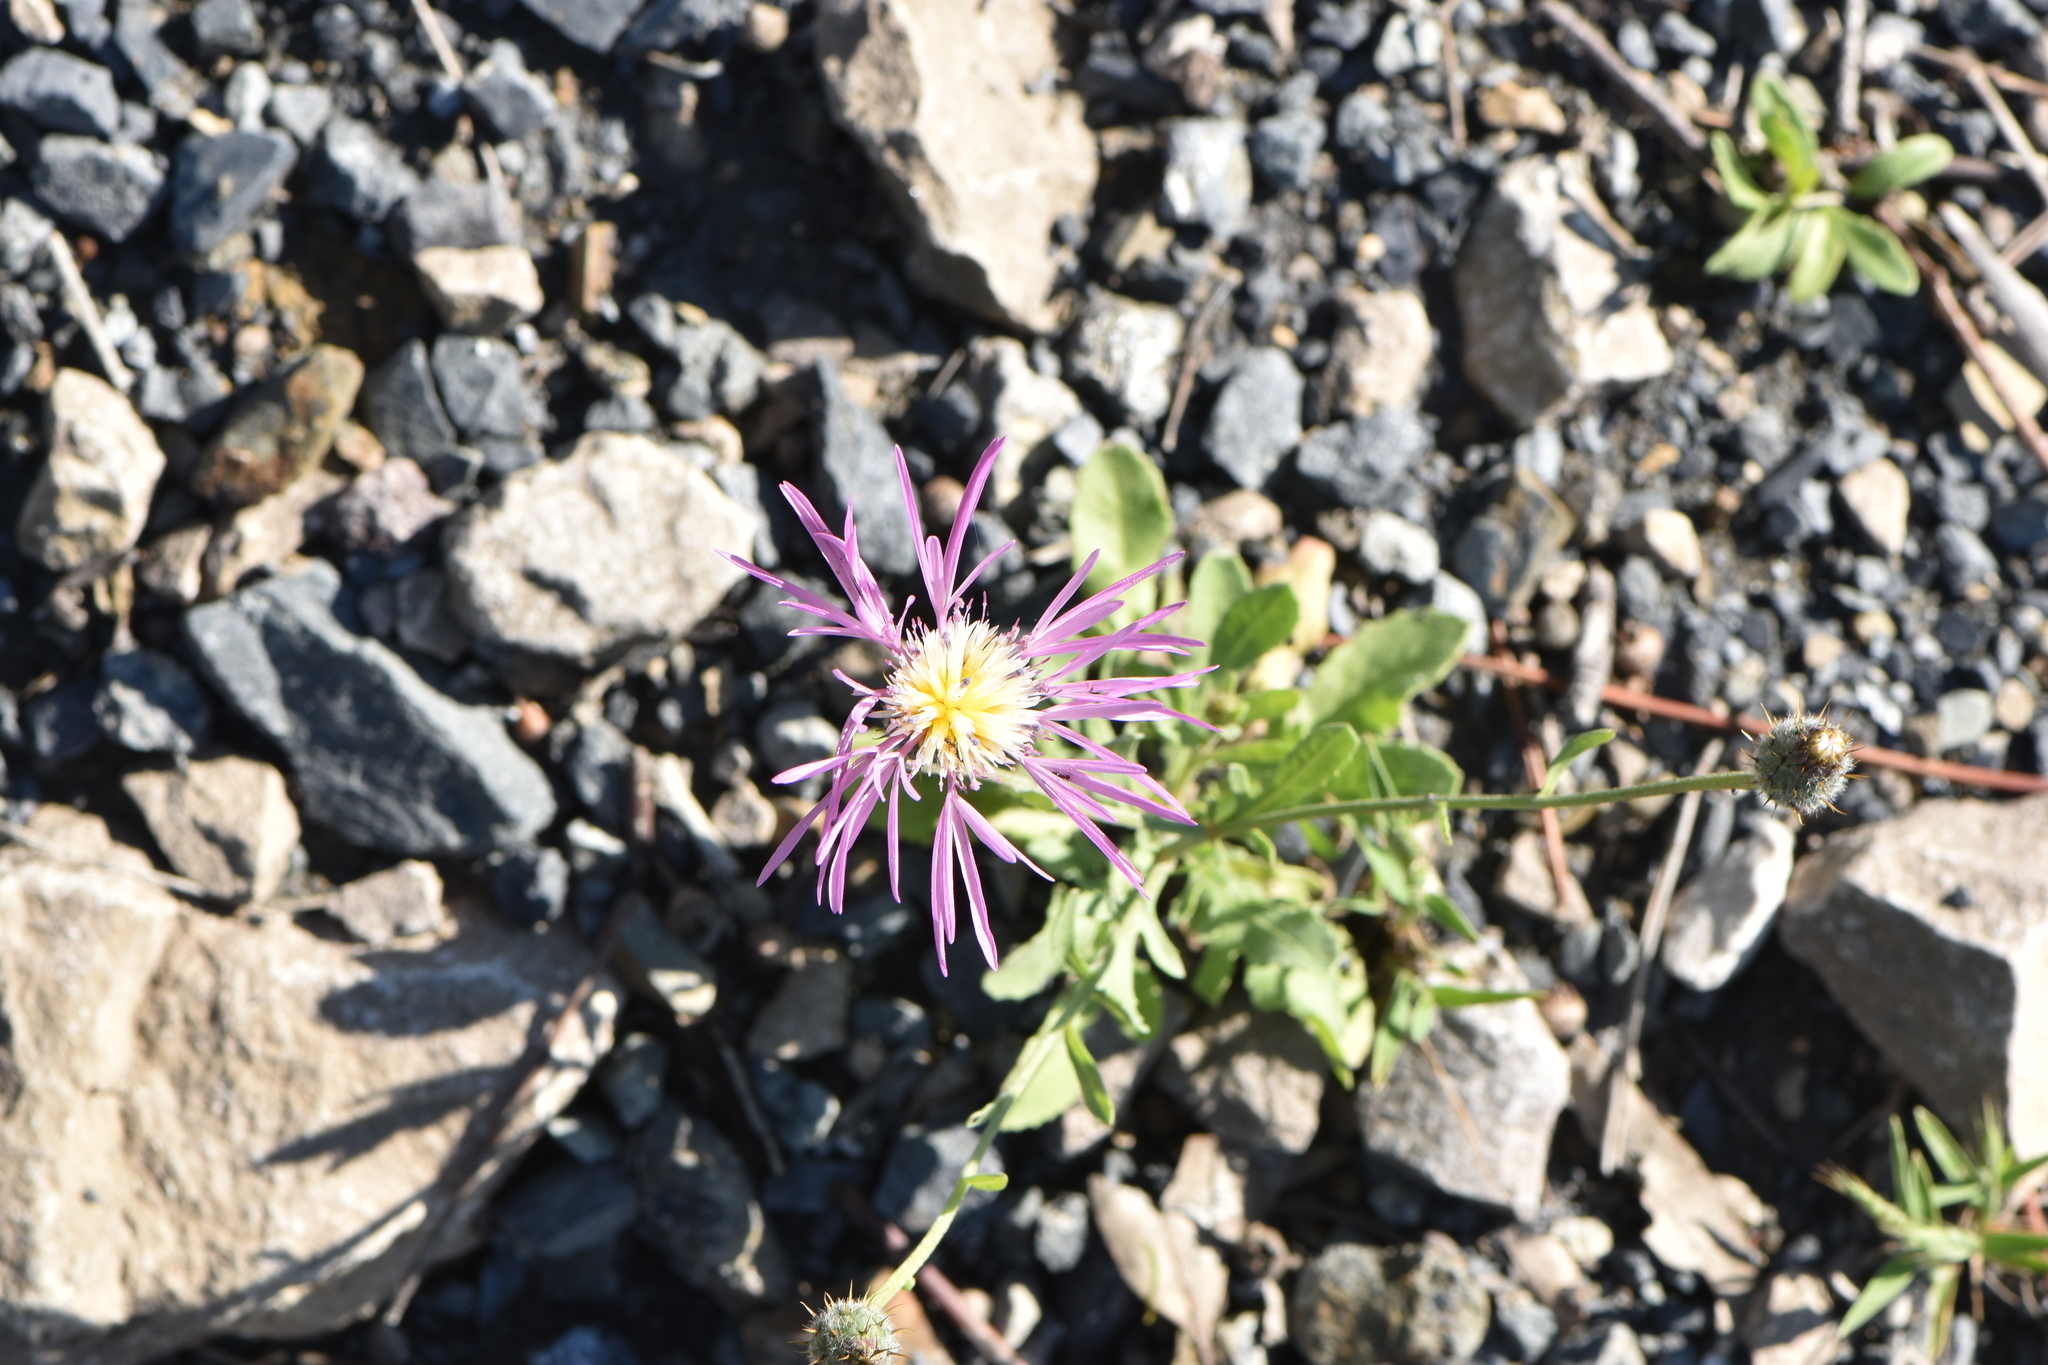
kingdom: Plantae
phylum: Tracheophyta
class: Magnoliopsida
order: Asterales
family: Asteraceae
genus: Volutaria
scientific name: Volutaria muricata
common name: Morocco knapweed
